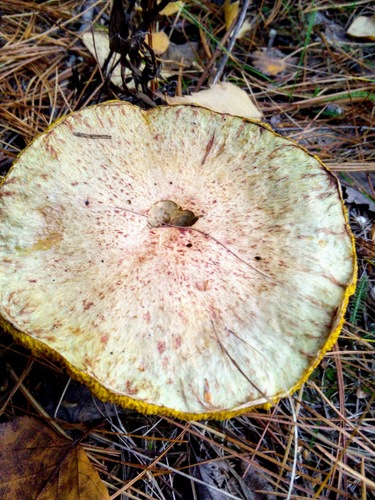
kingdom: Fungi
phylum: Basidiomycota
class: Agaricomycetes
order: Boletales
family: Suillaceae
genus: Suillus
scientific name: Suillus americanus
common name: Chicken fat mushroom
